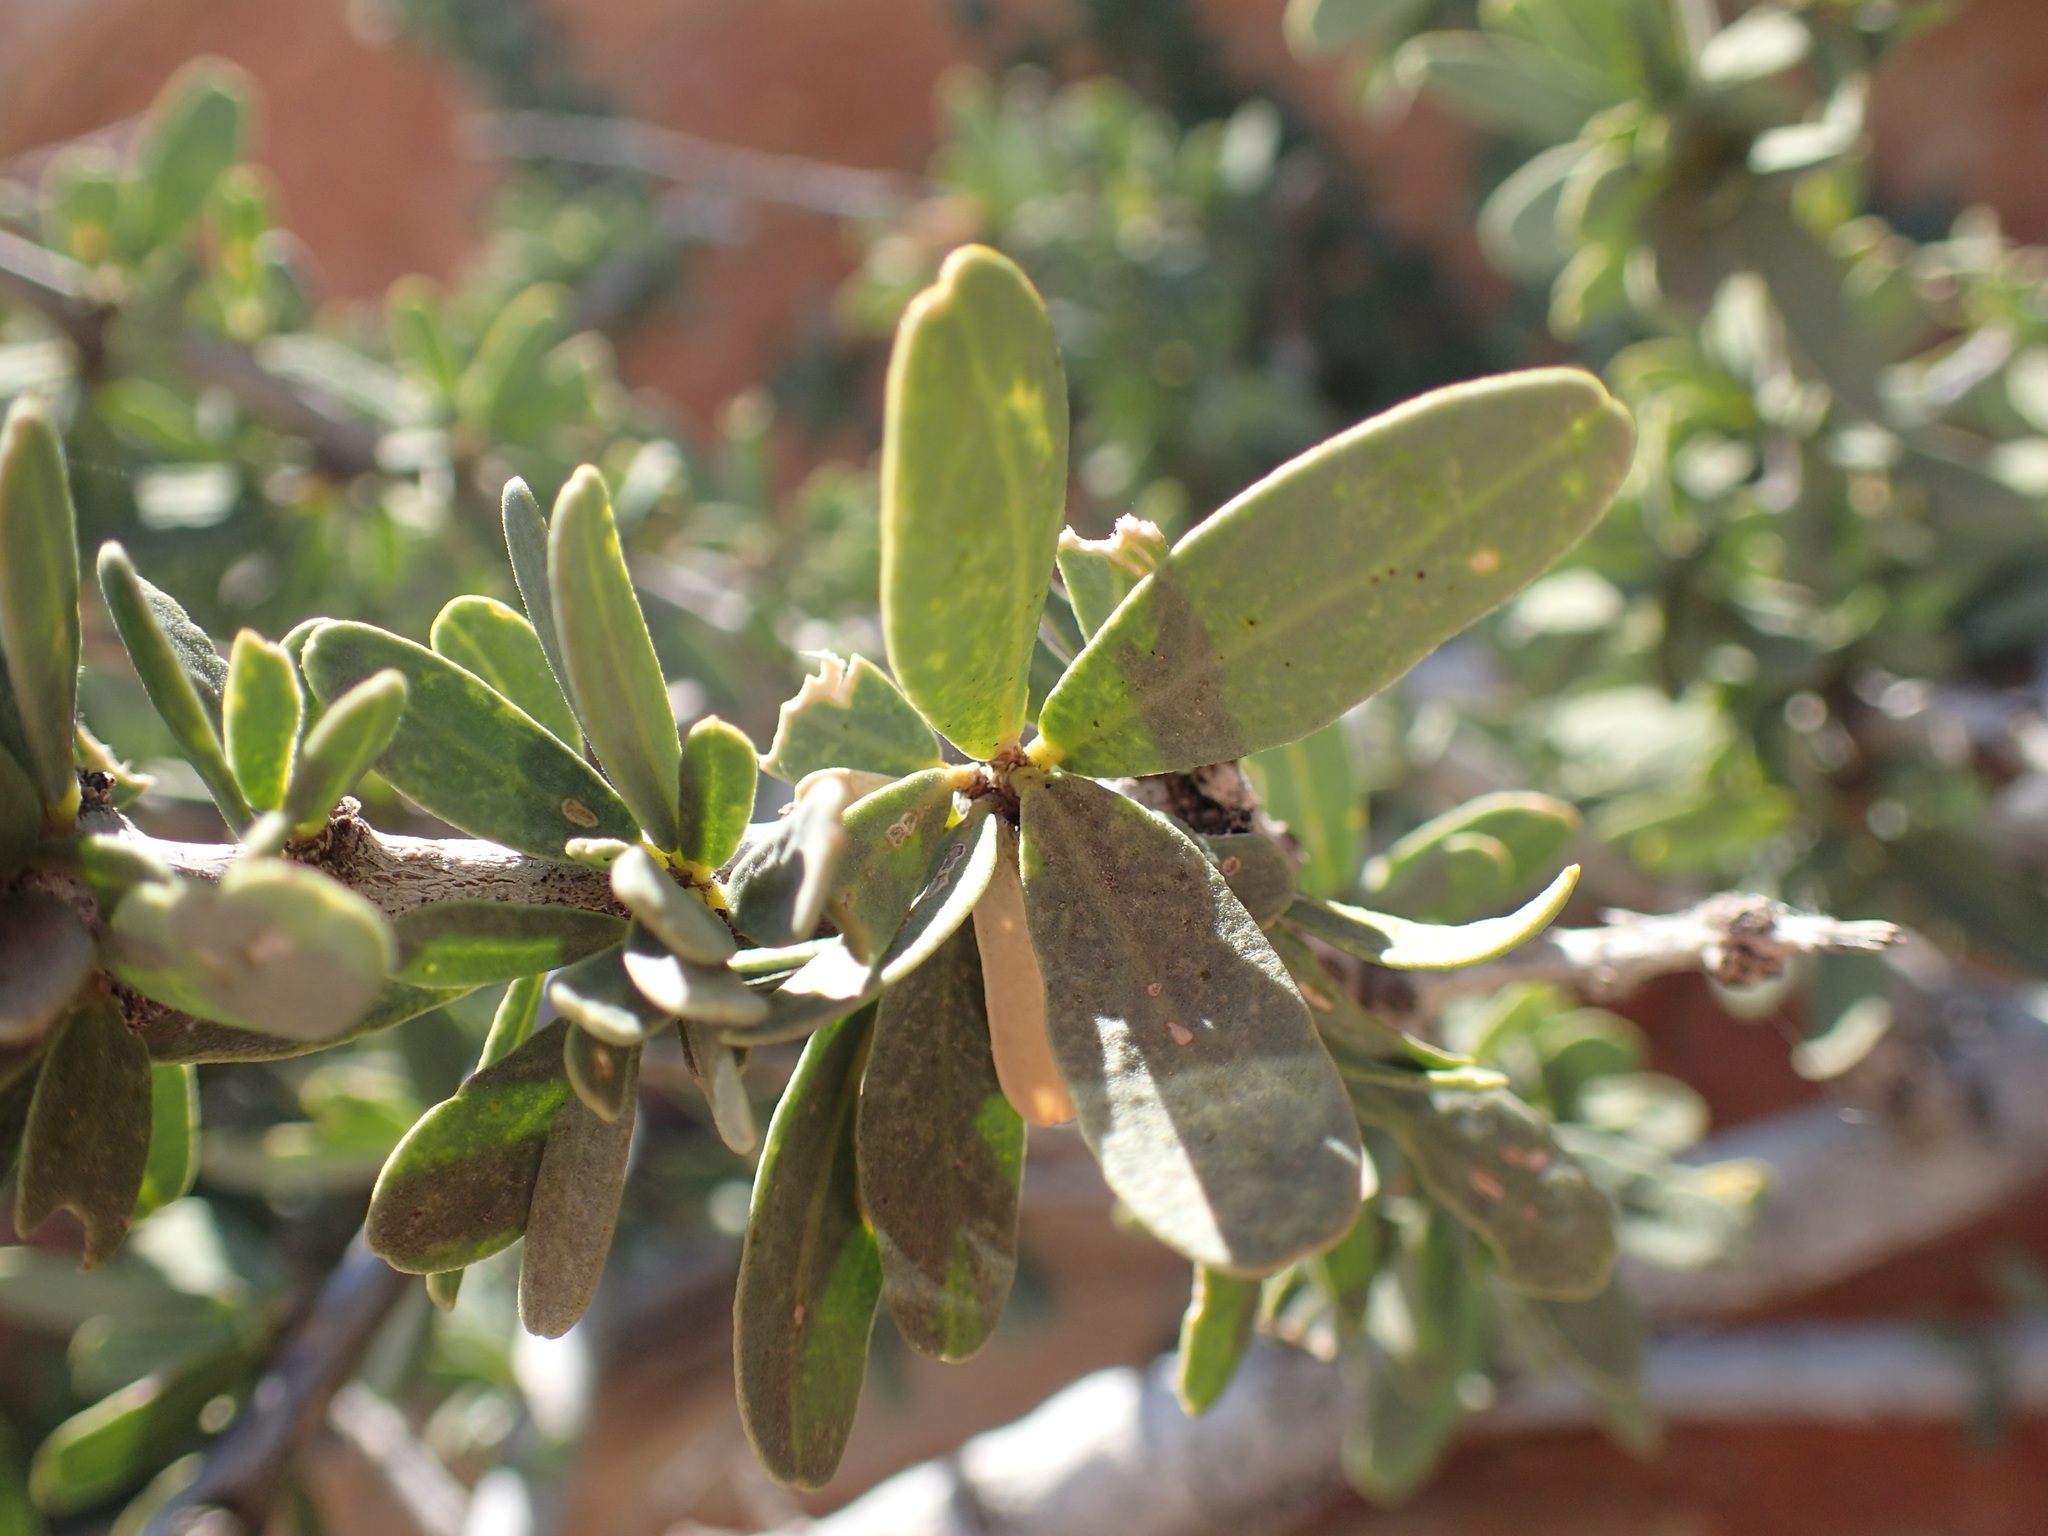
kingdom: Plantae
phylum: Tracheophyta
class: Magnoliopsida
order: Brassicales
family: Capparaceae
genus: Boscia
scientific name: Boscia albitrunca
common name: Caper bush
